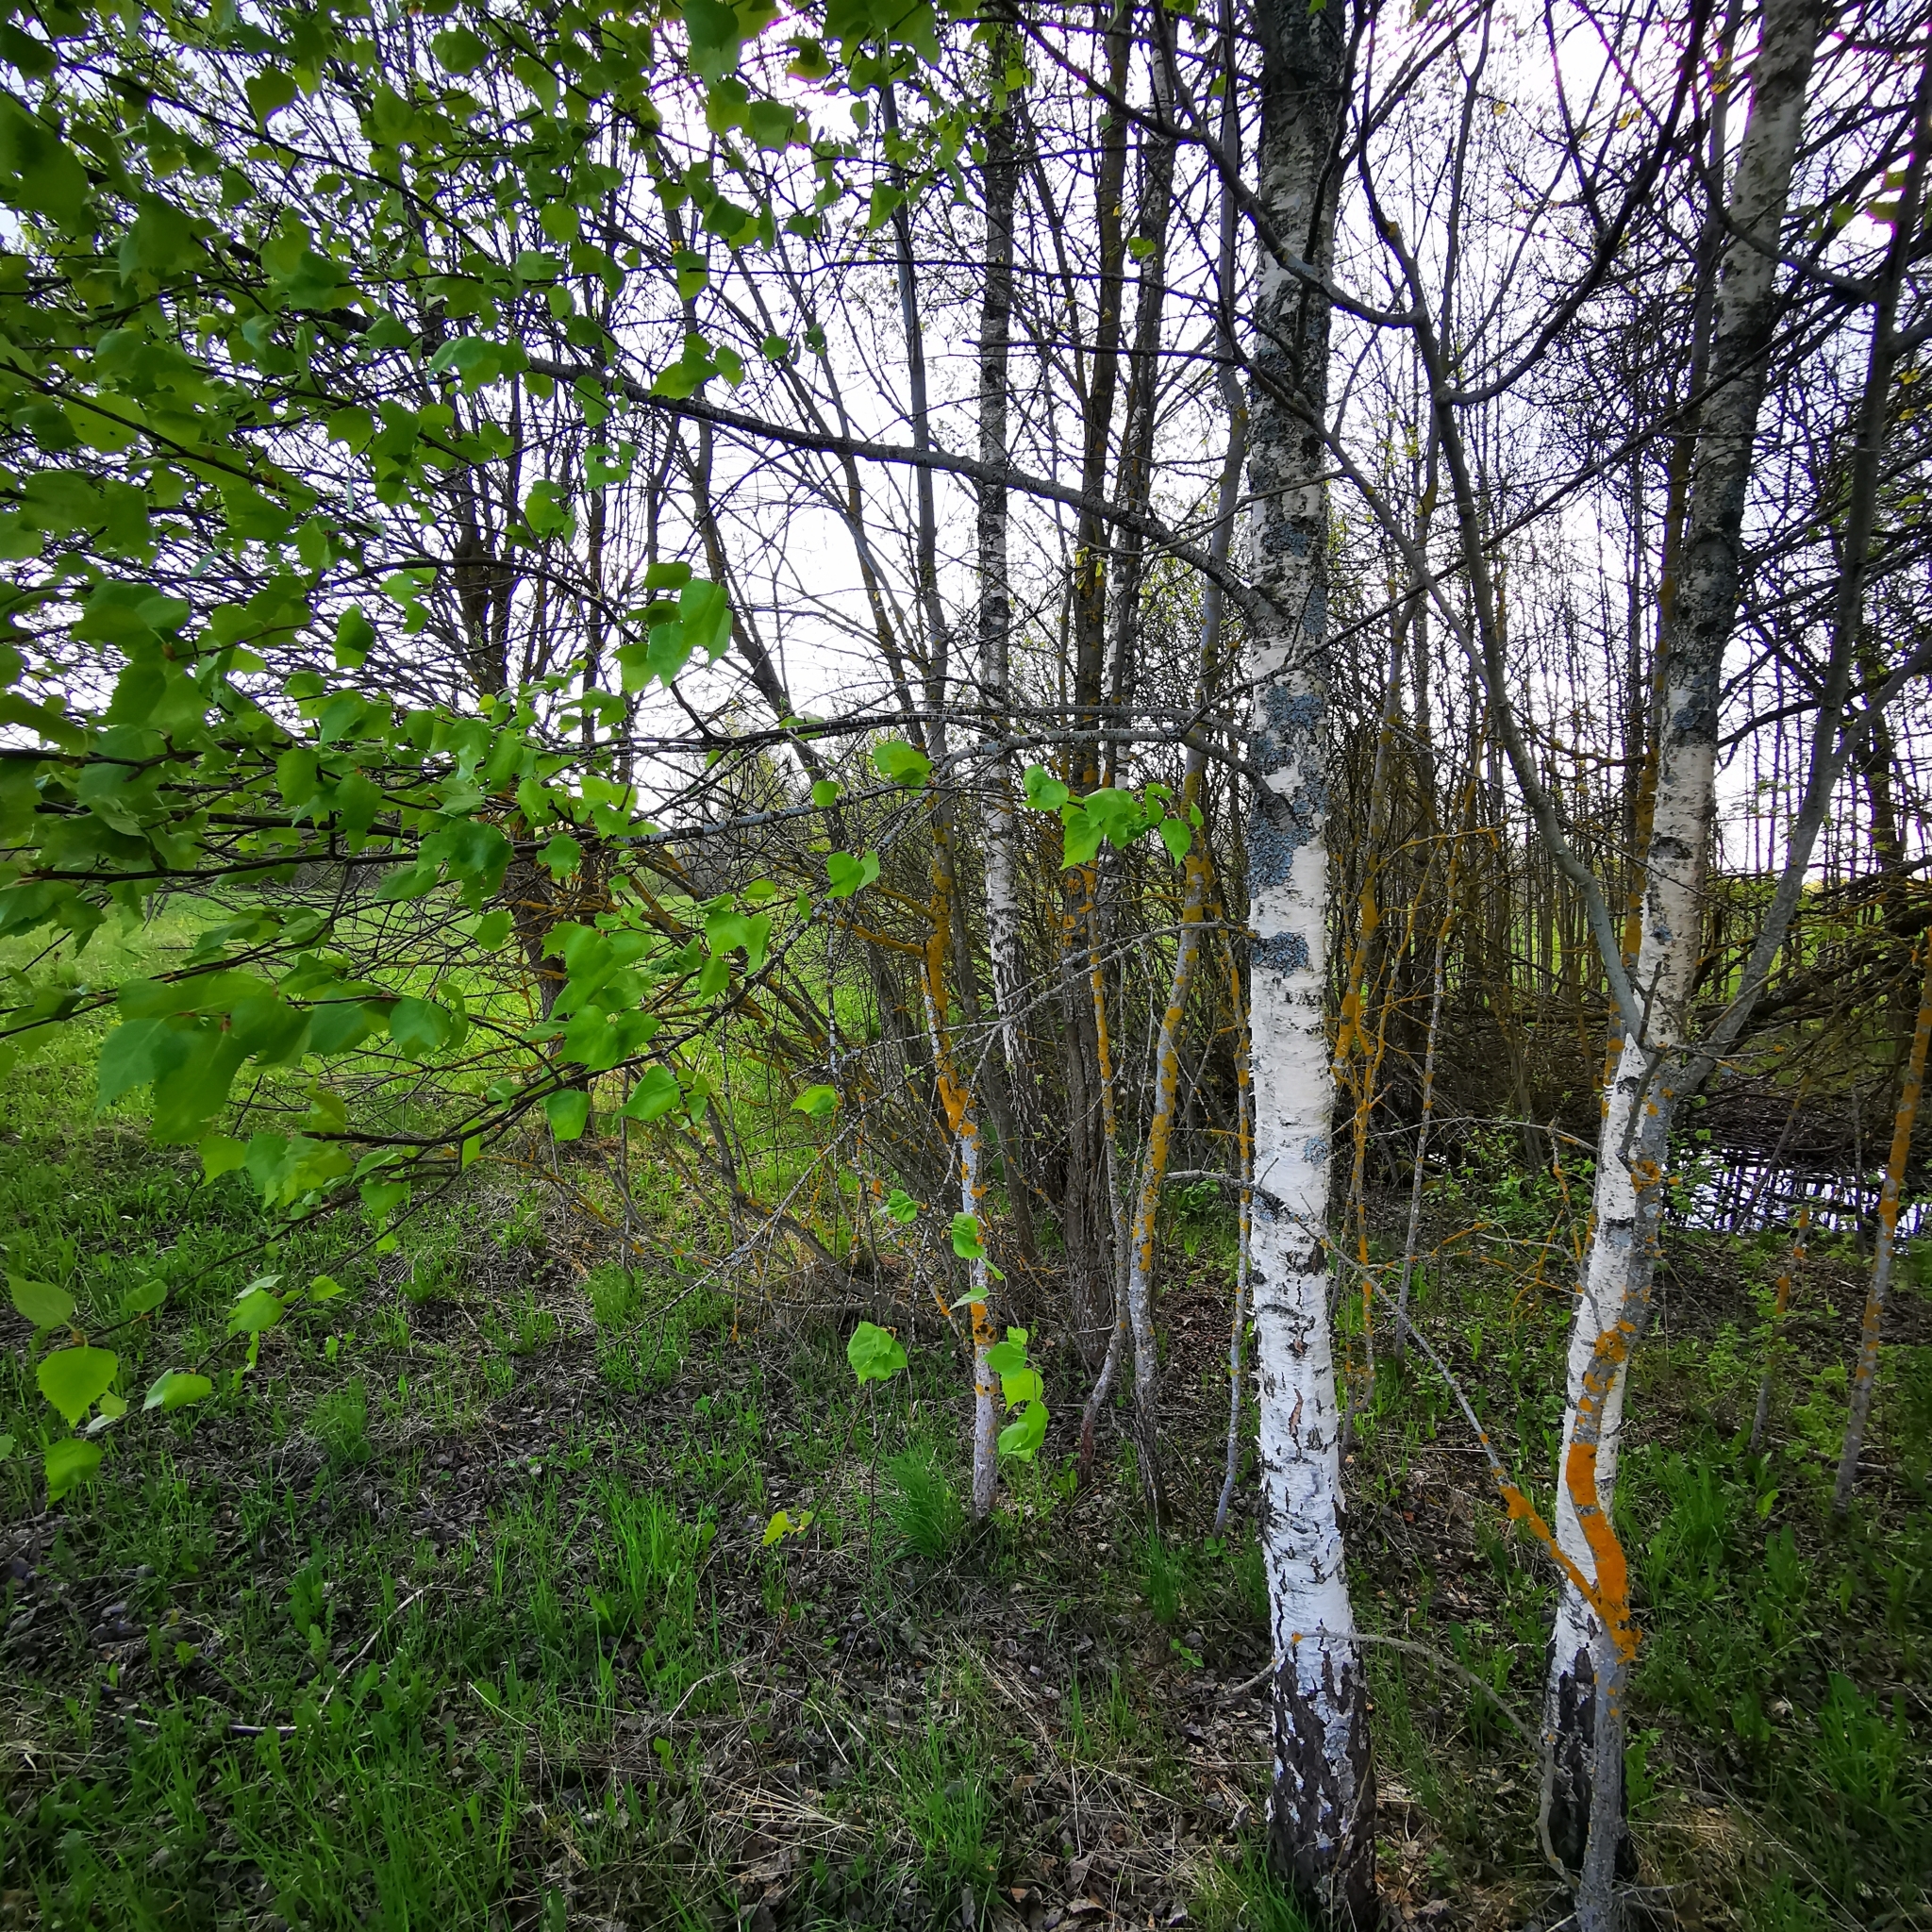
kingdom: Plantae
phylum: Tracheophyta
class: Magnoliopsida
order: Fagales
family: Betulaceae
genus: Betula
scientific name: Betula pendula
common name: Silver birch
